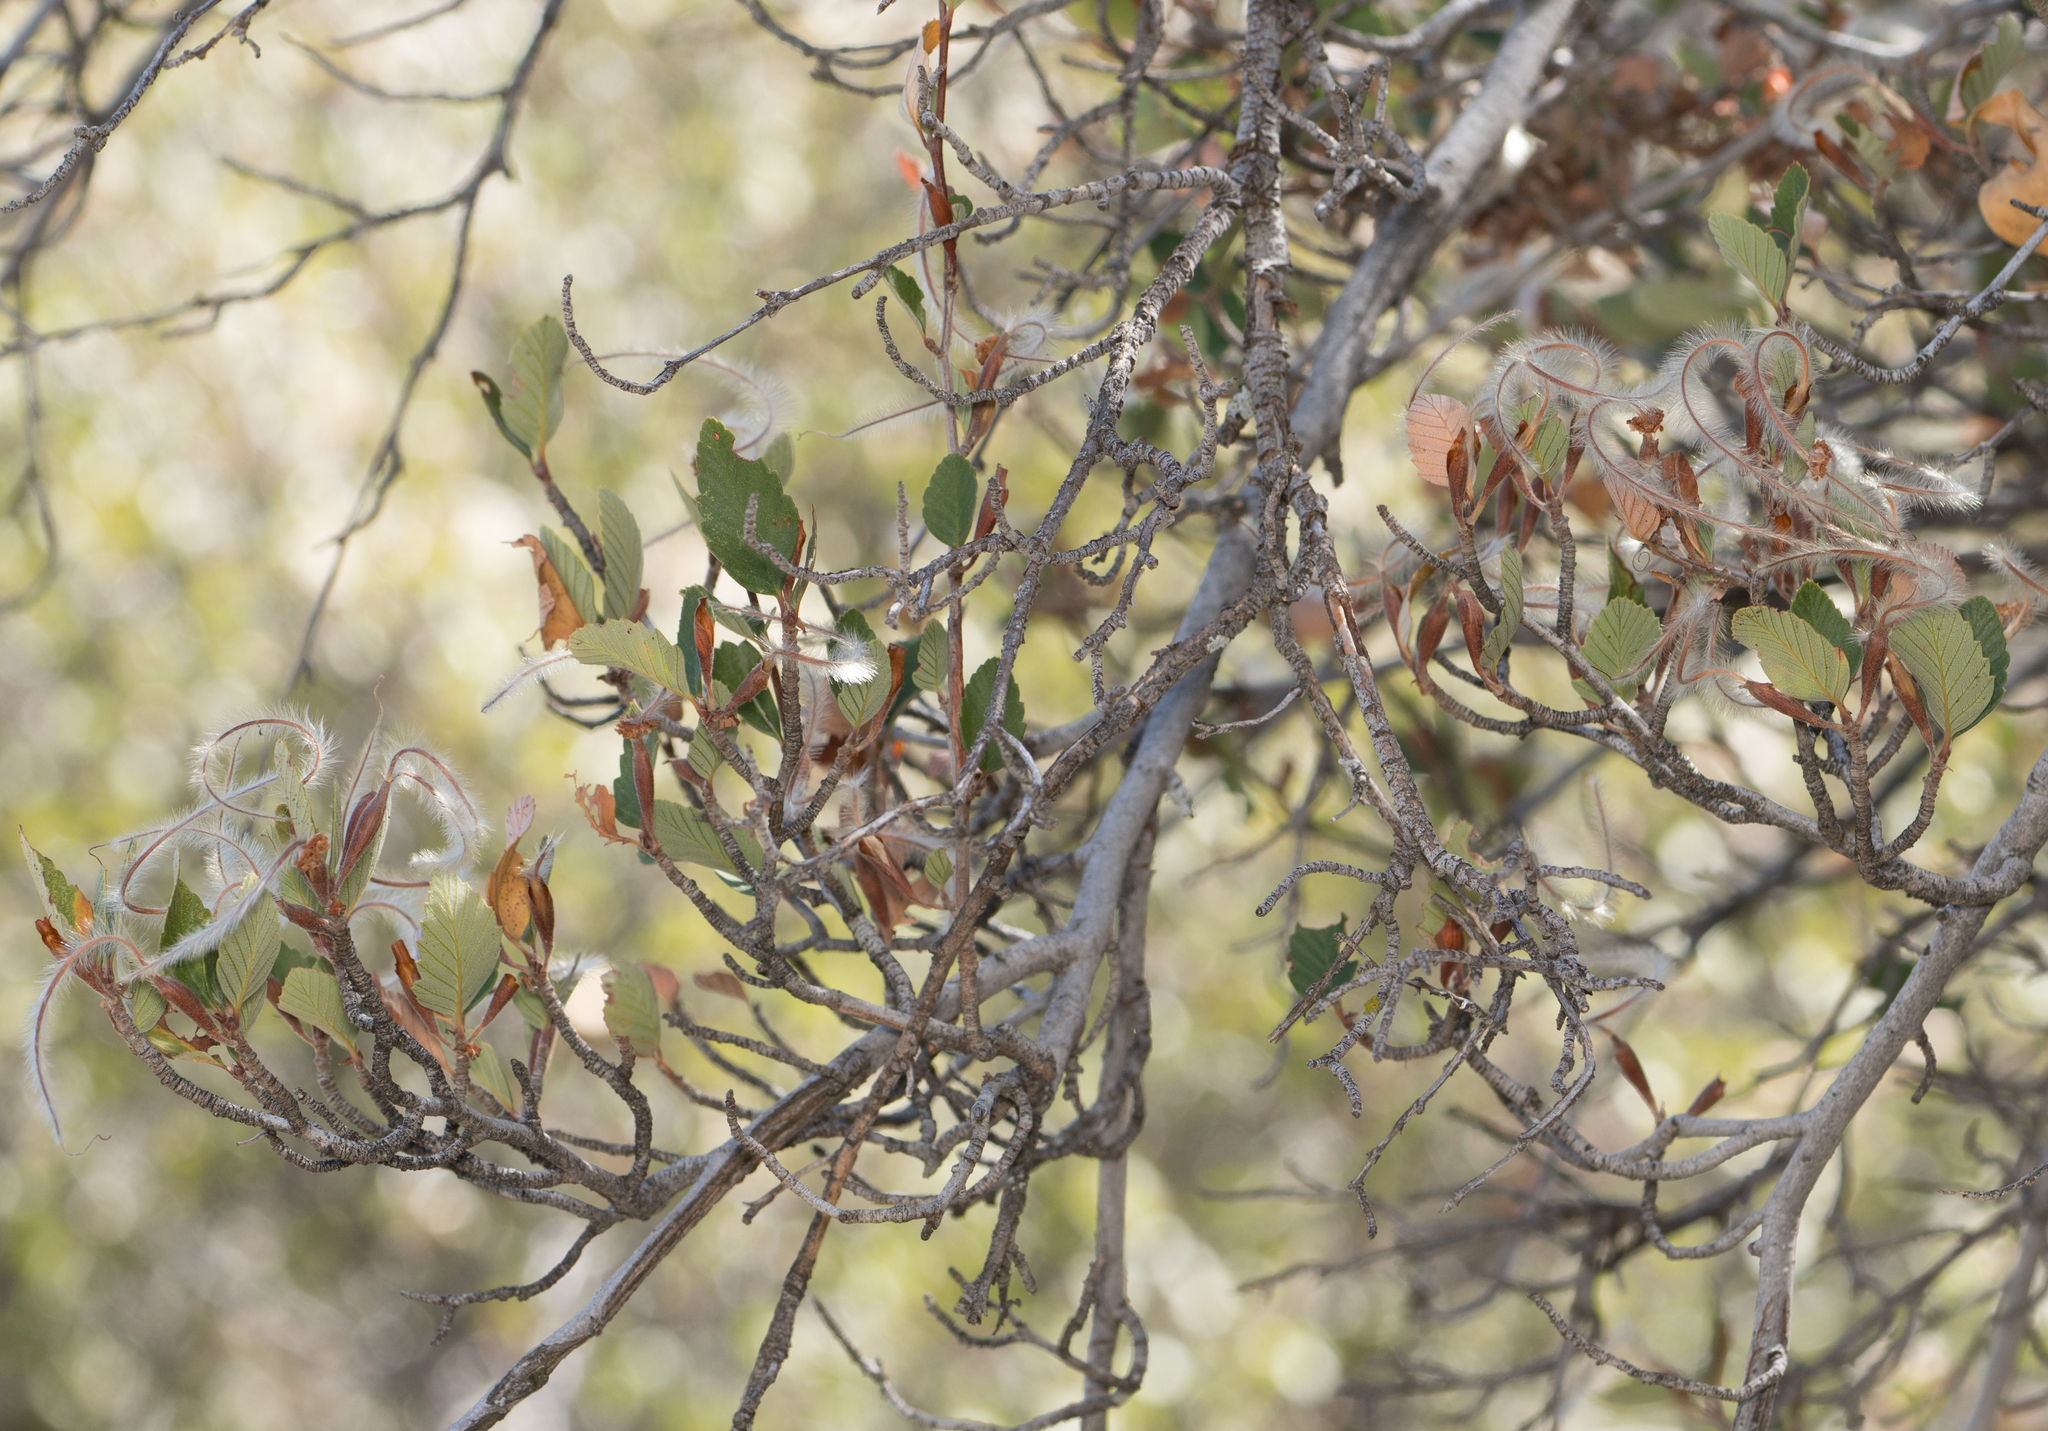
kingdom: Plantae
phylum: Tracheophyta
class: Magnoliopsida
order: Rosales
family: Rosaceae
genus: Cercocarpus
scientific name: Cercocarpus betuloides
